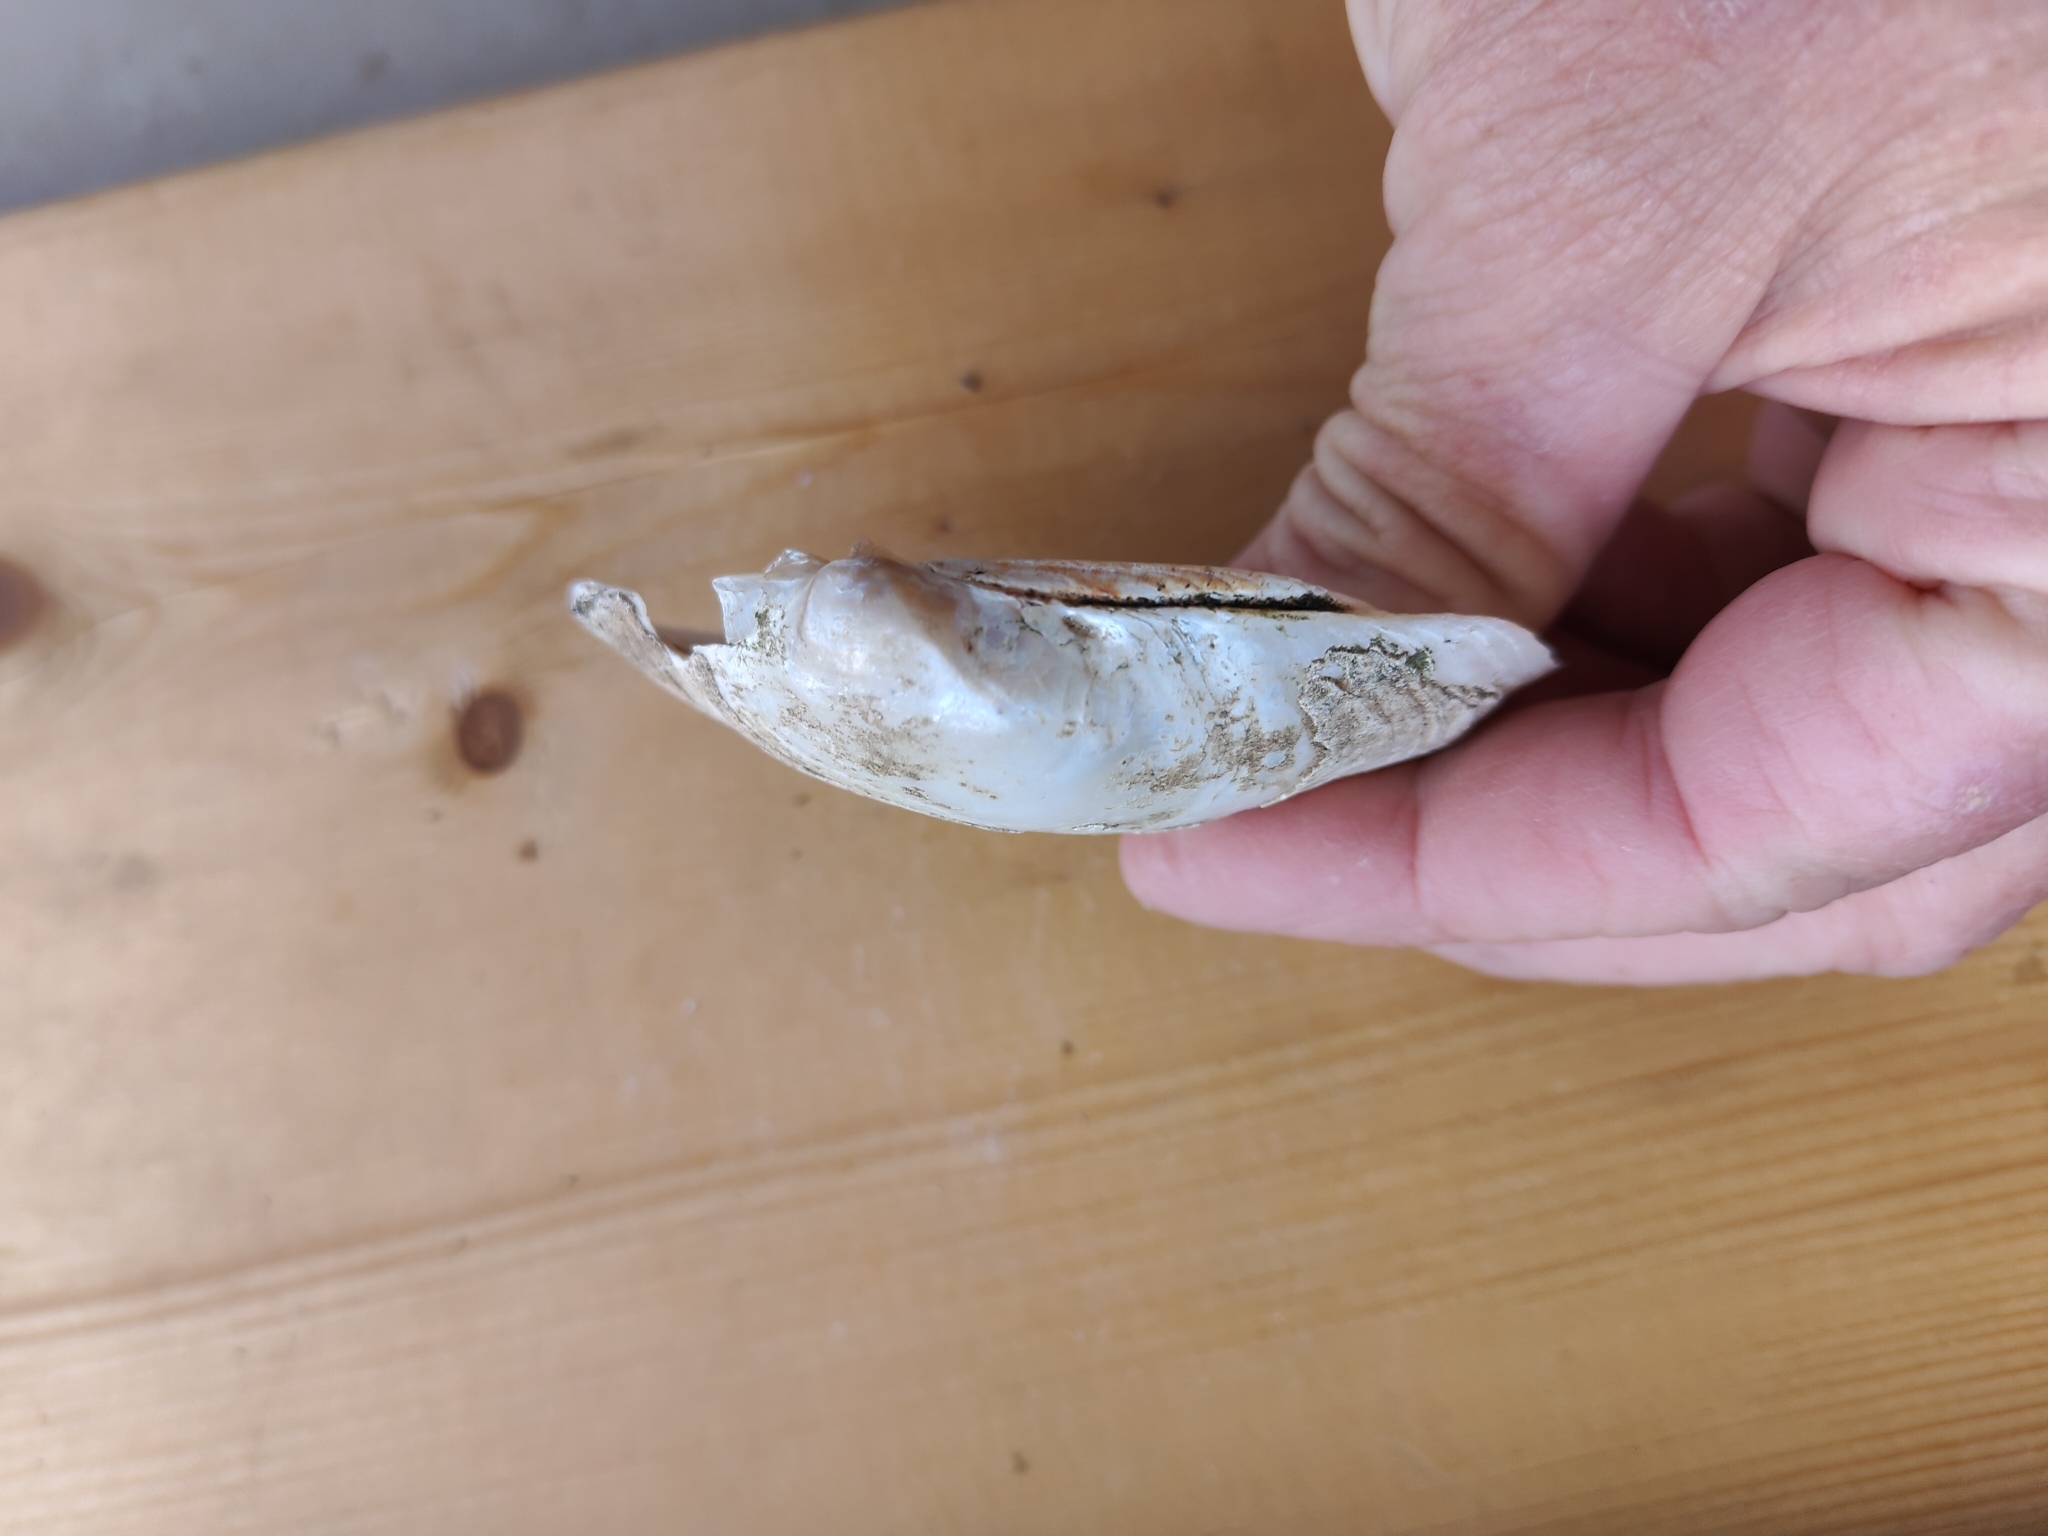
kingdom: Animalia
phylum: Mollusca
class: Bivalvia
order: Unionida
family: Unionidae
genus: Lampsilis
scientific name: Lampsilis cardium
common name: Plain pocketbook
